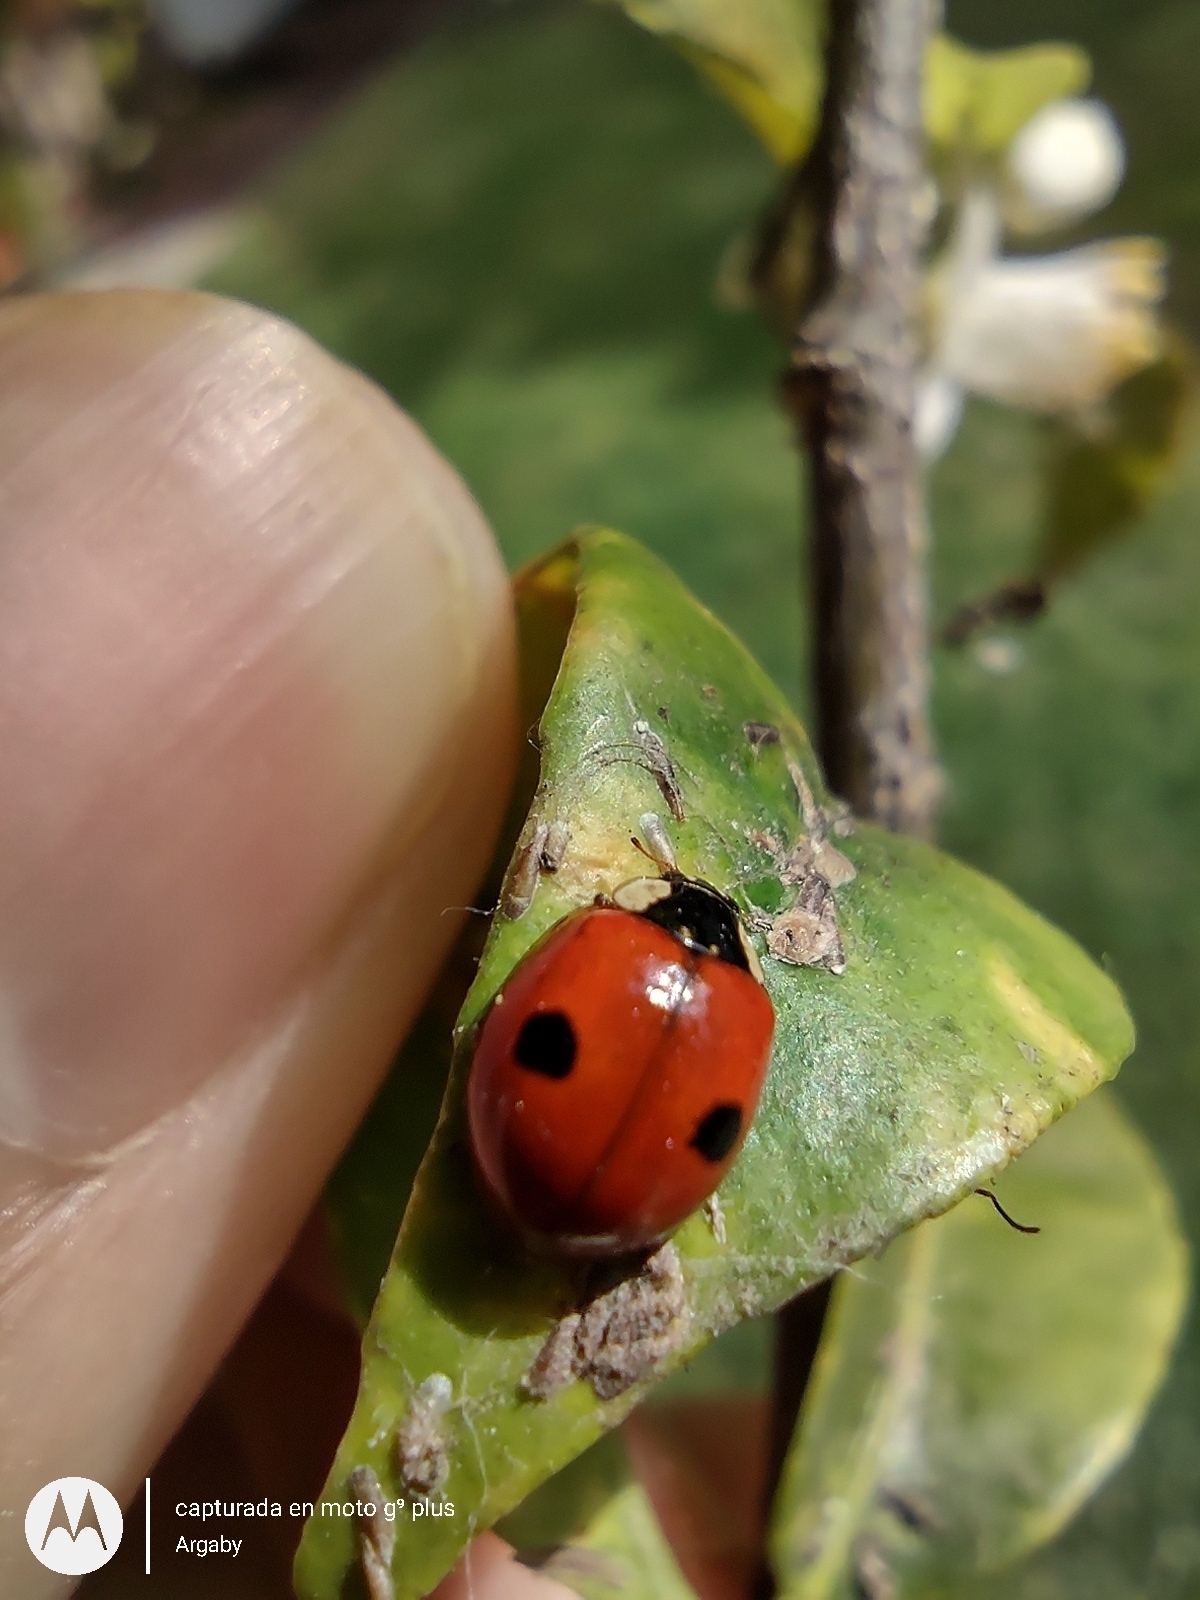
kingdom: Animalia
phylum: Arthropoda
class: Insecta
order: Coleoptera
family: Coccinellidae
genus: Adalia
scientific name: Adalia bipunctata
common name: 2-spot ladybird
